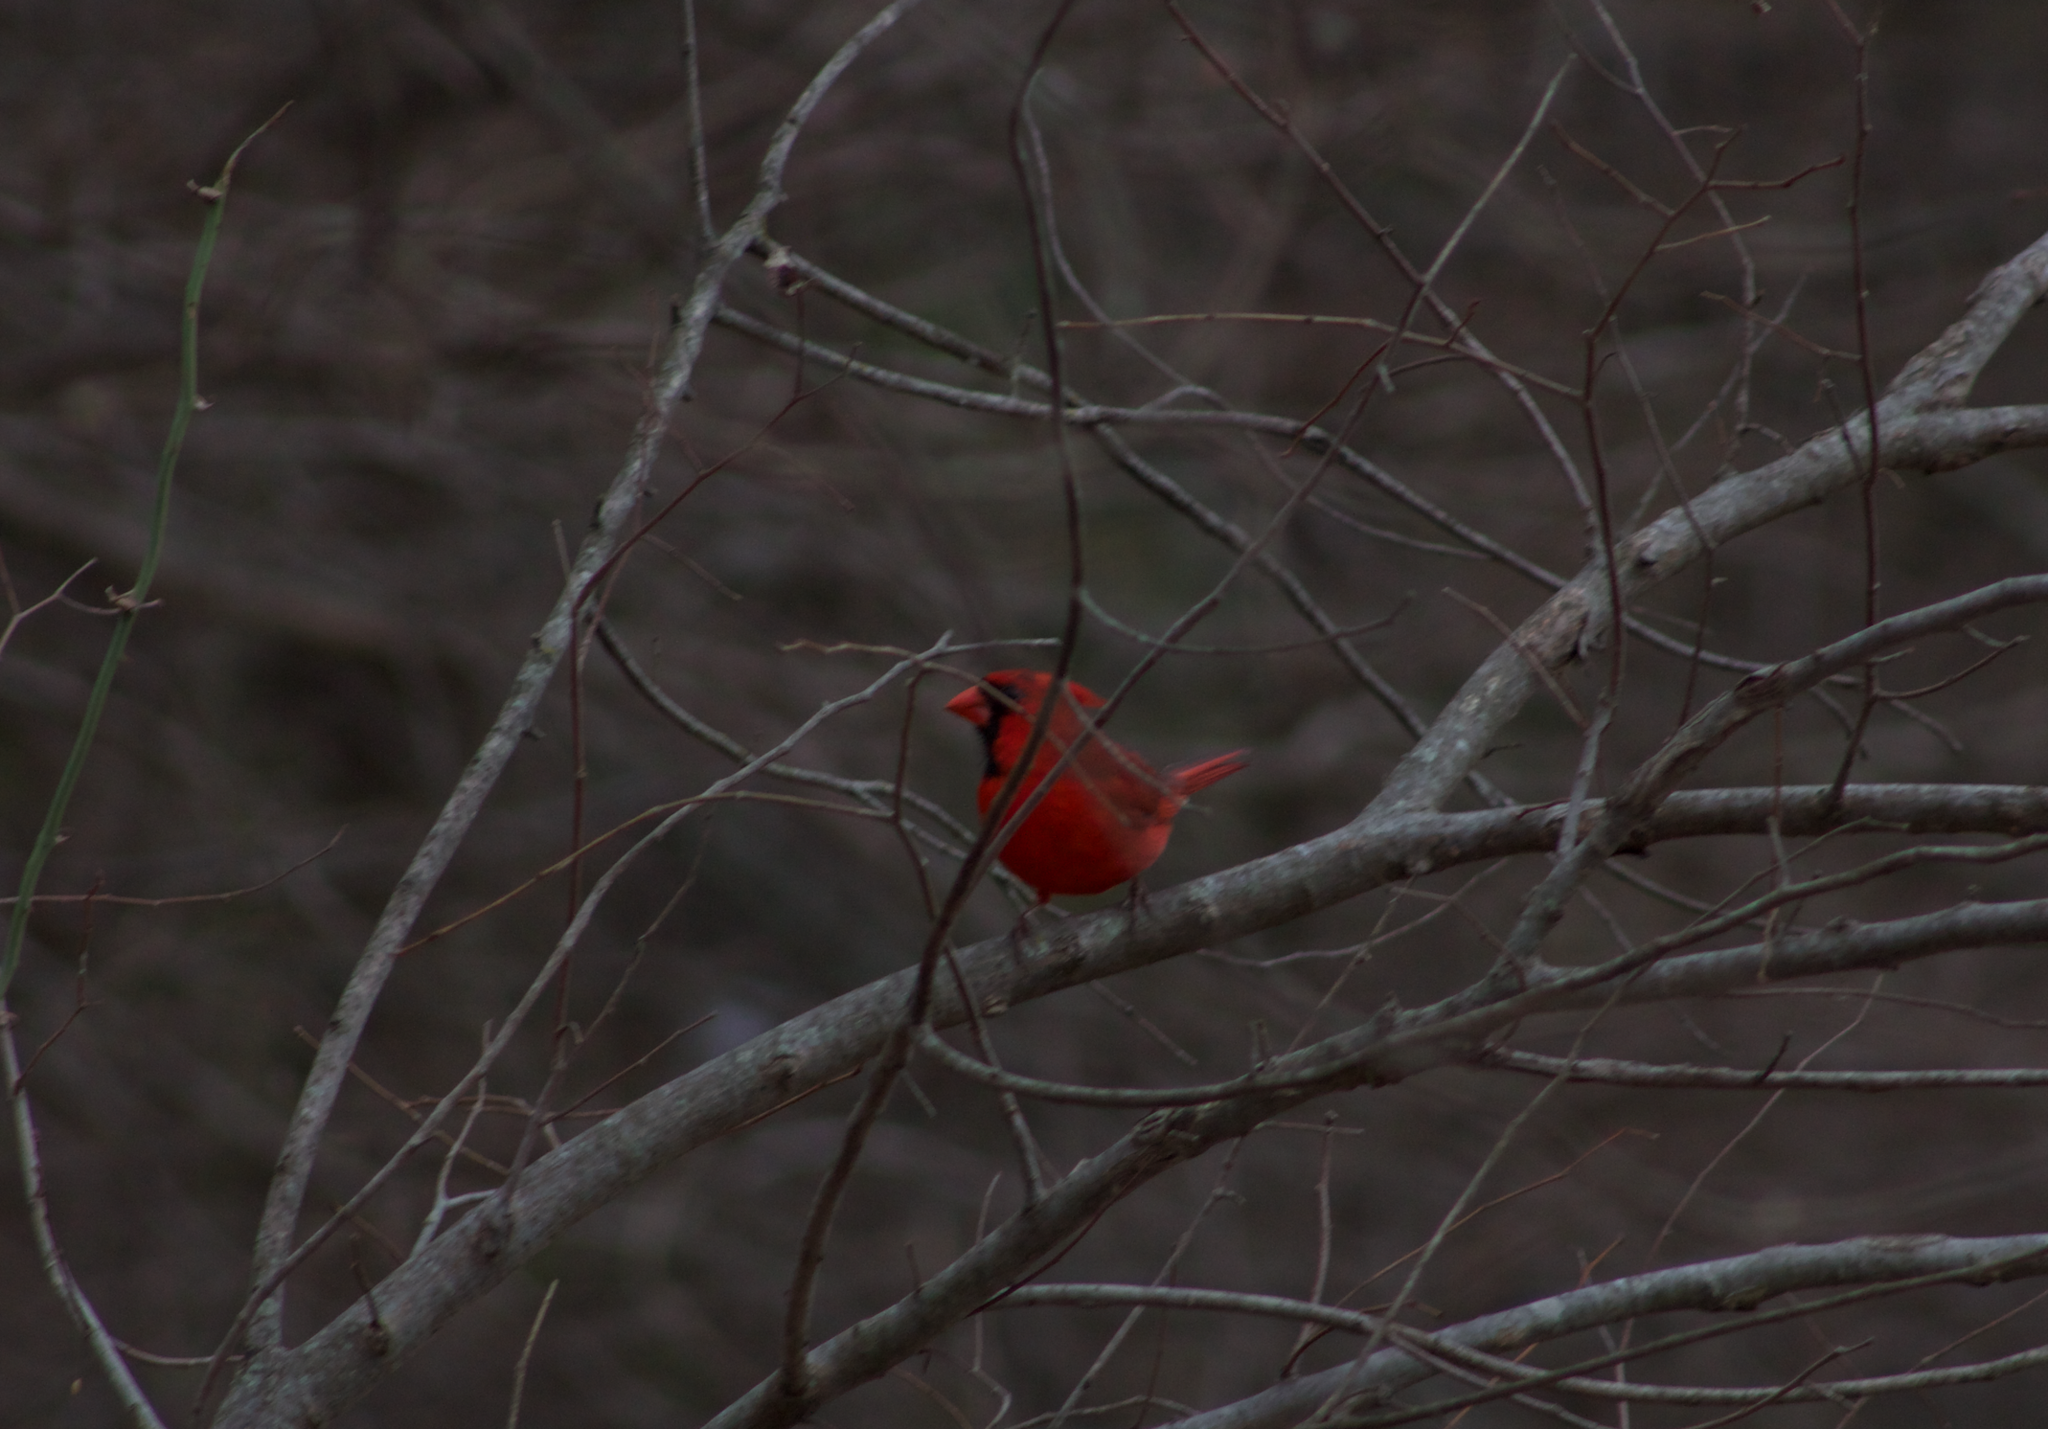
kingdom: Animalia
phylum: Chordata
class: Aves
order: Passeriformes
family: Cardinalidae
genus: Cardinalis
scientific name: Cardinalis cardinalis
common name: Northern cardinal
